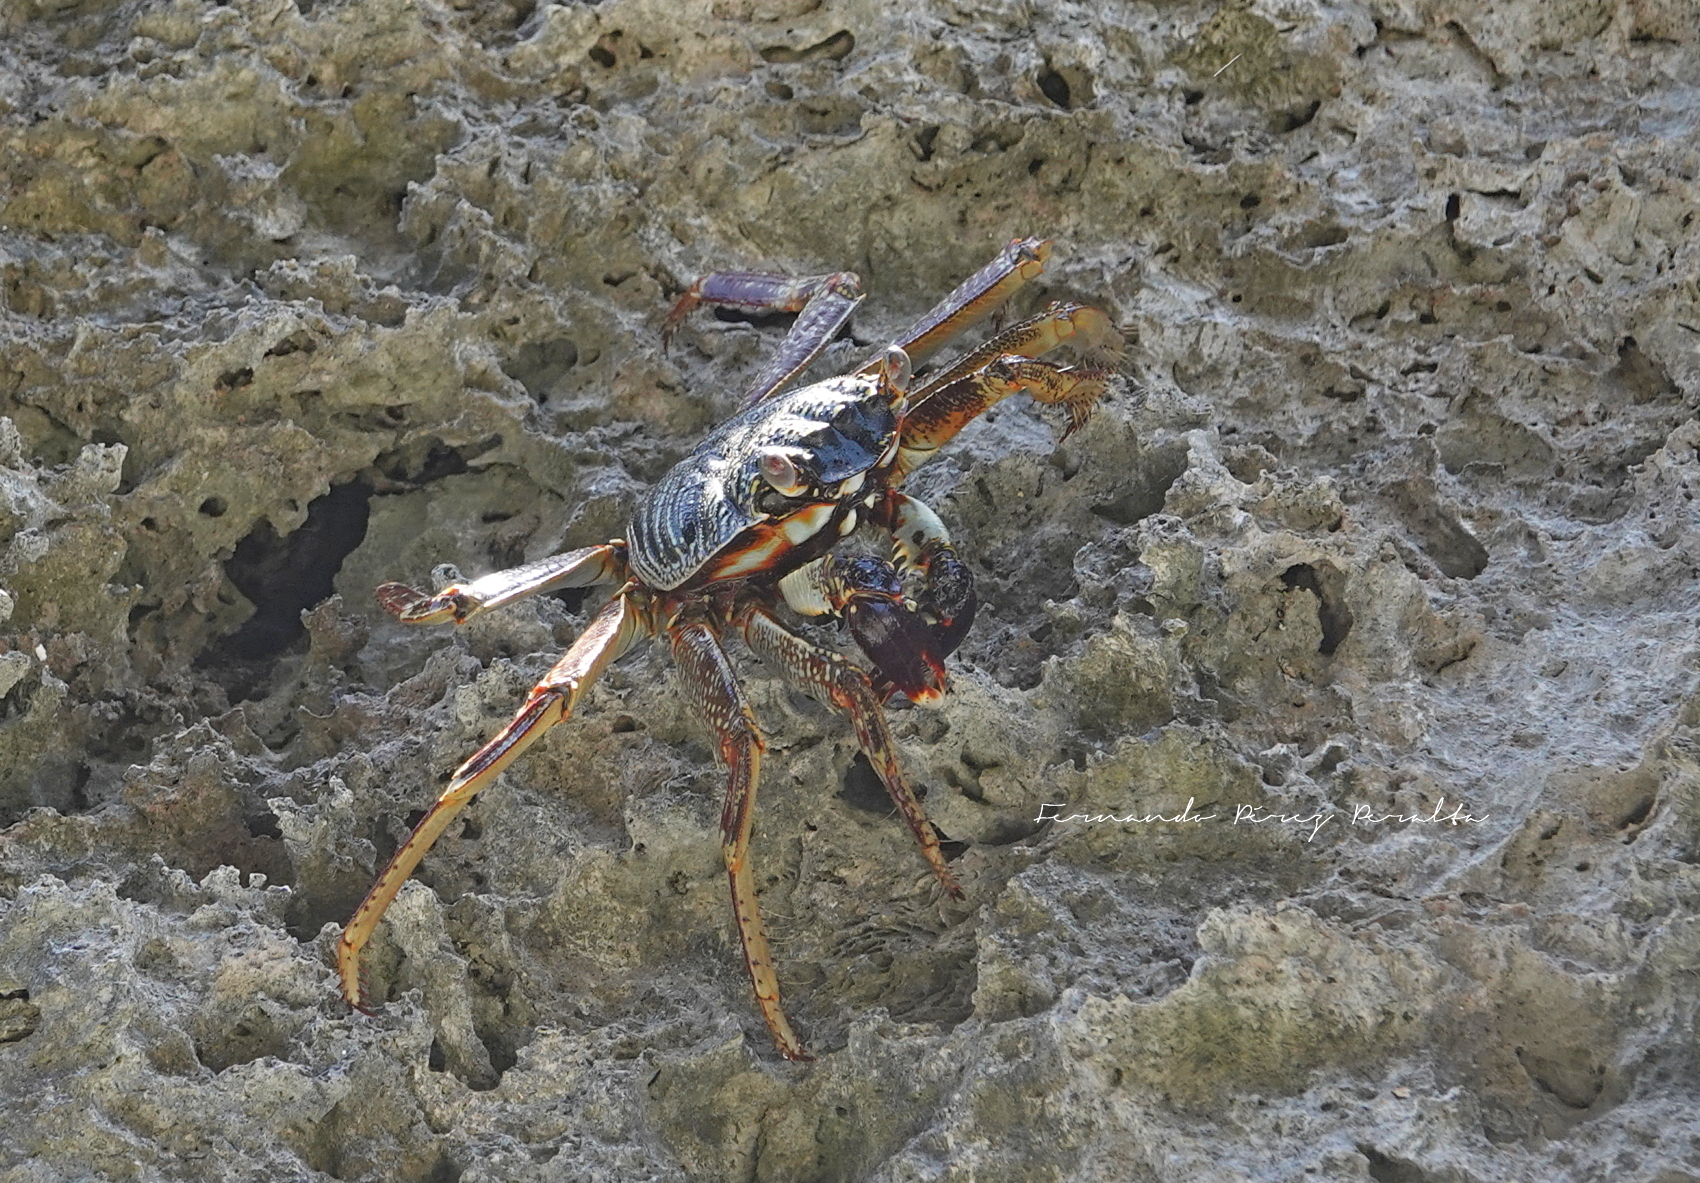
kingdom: Animalia
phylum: Arthropoda
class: Malacostraca
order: Decapoda
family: Grapsidae
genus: Grapsus
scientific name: Grapsus tenuicrustatus
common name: Natal lightfoot crab
